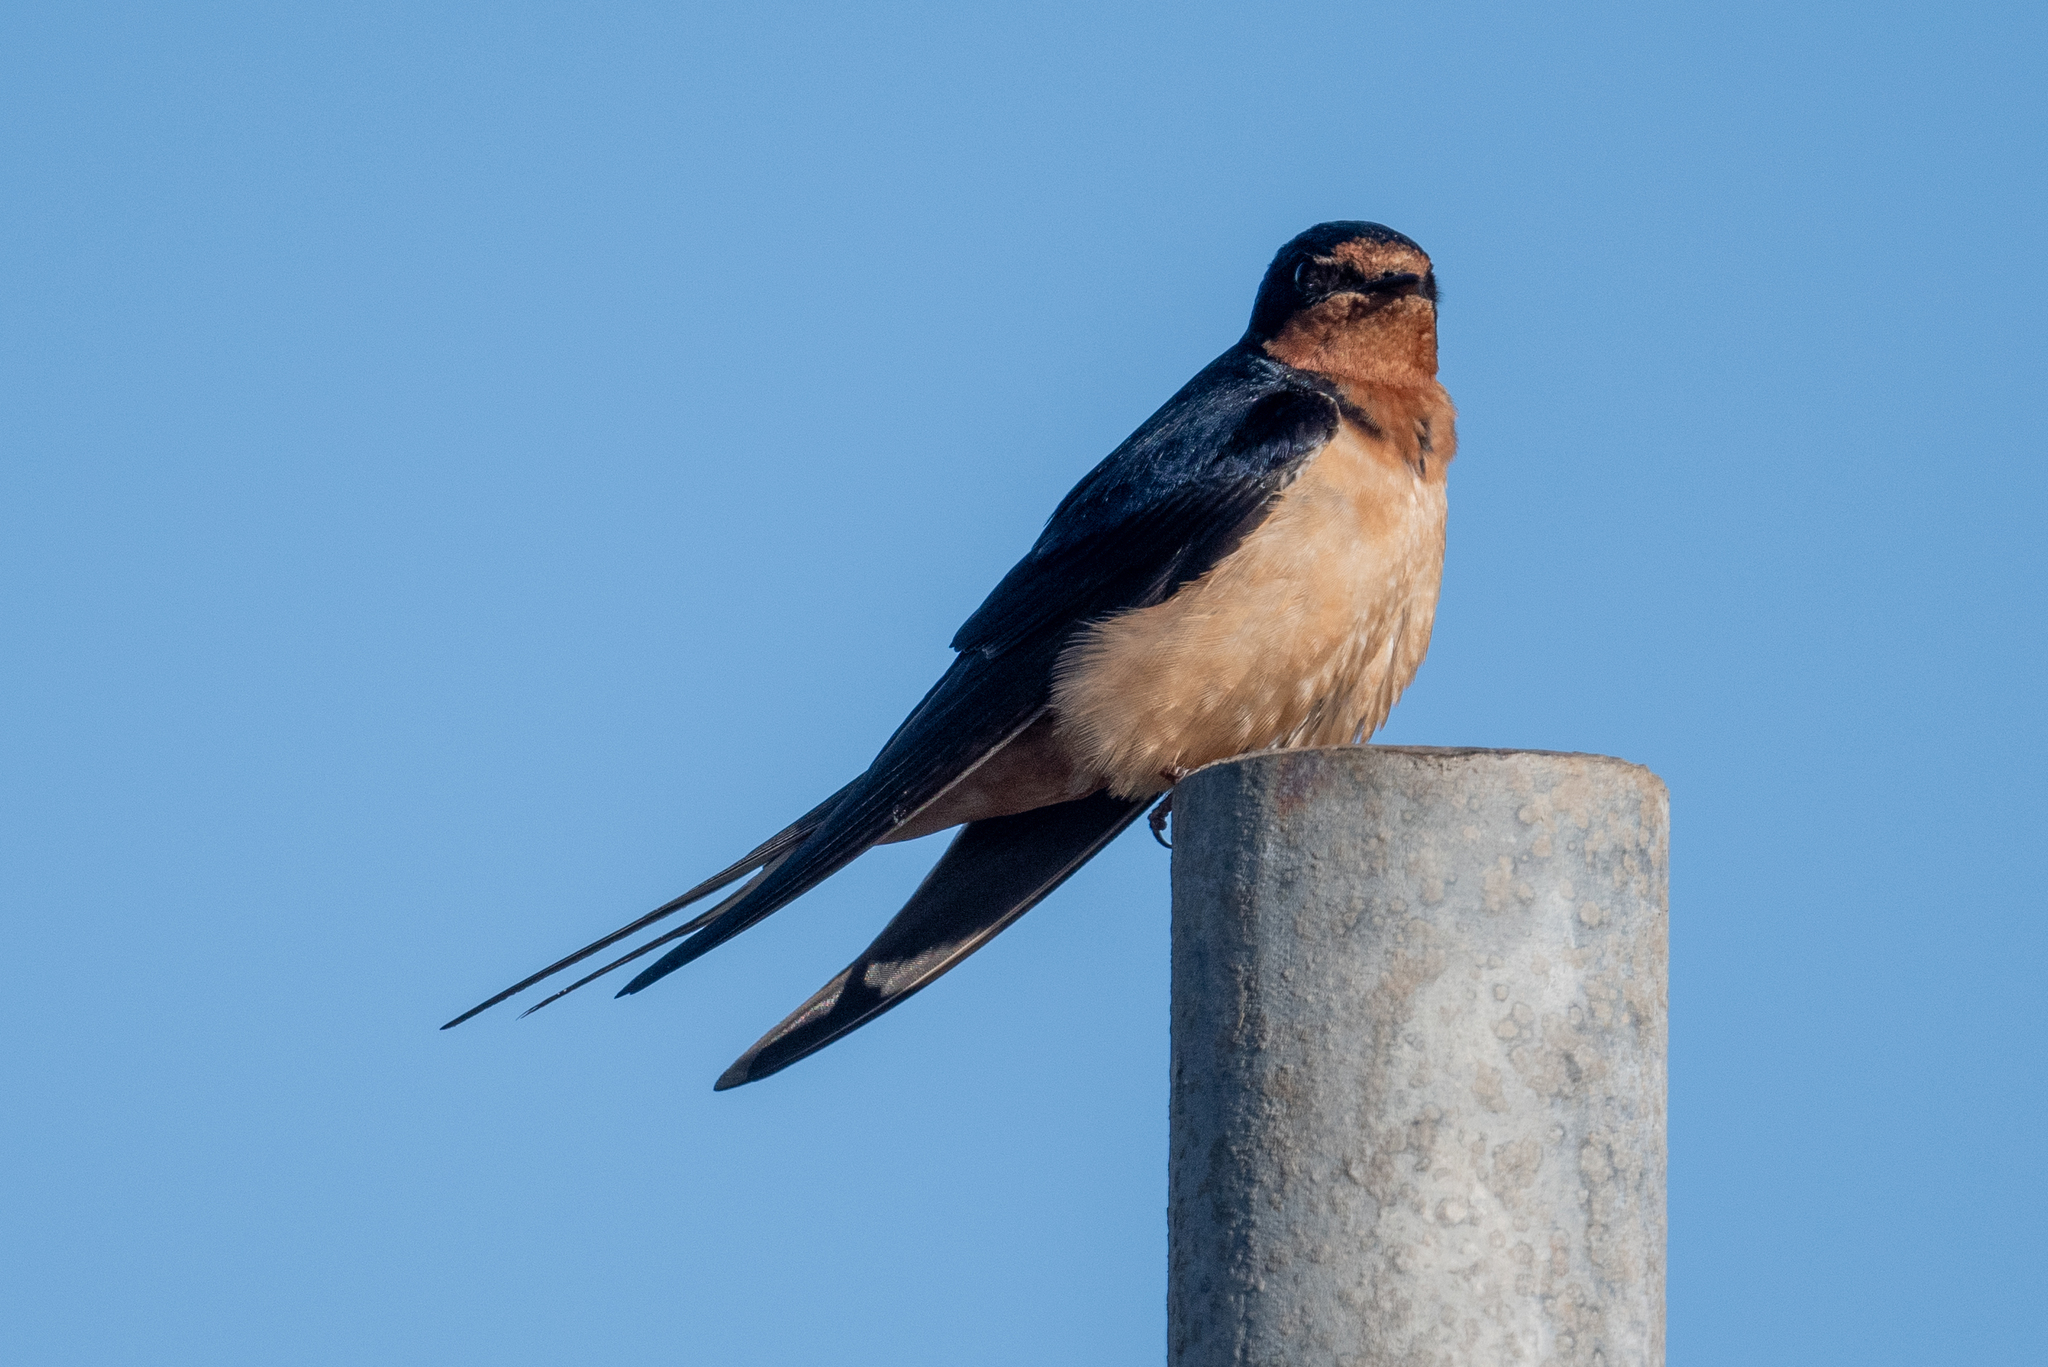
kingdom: Animalia
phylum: Chordata
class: Aves
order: Passeriformes
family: Hirundinidae
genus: Hirundo
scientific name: Hirundo rustica
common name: Barn swallow
